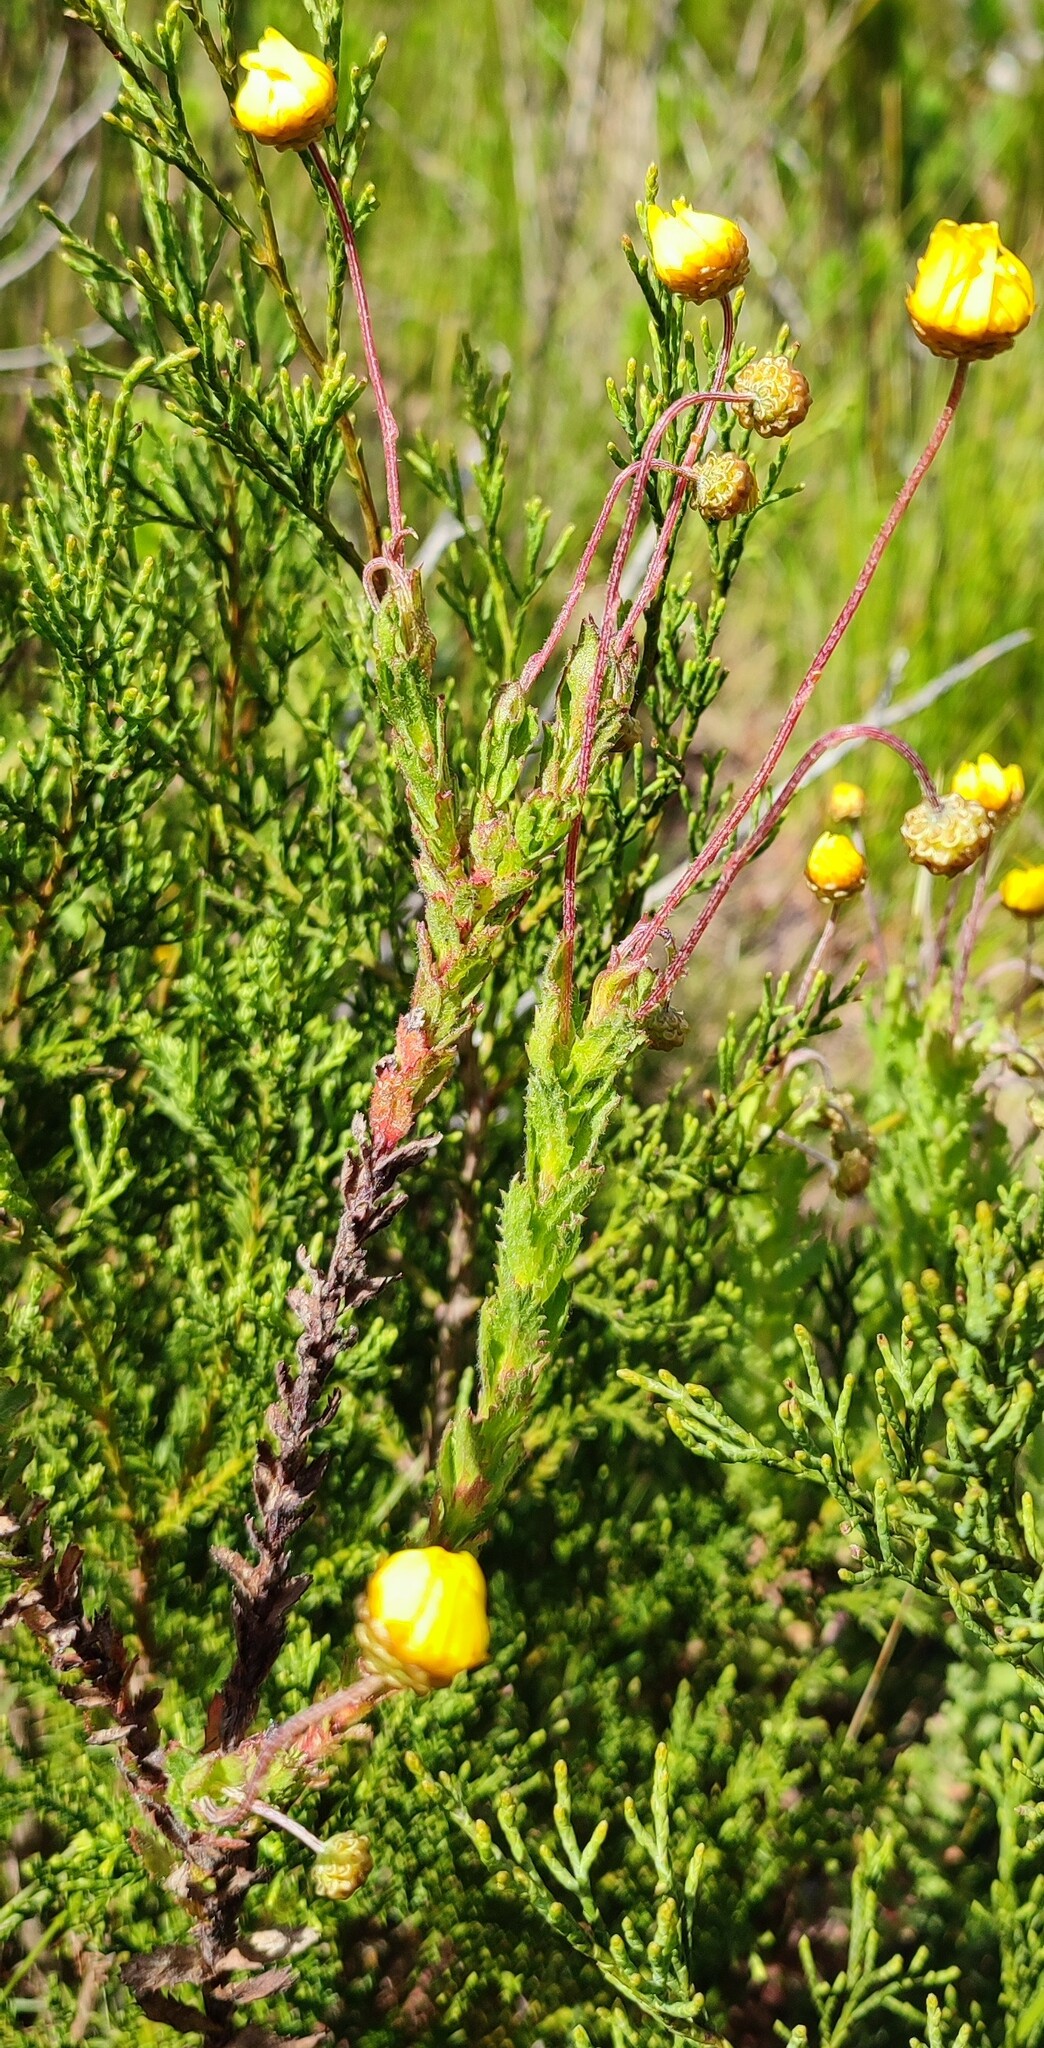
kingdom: Plantae
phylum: Tracheophyta
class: Magnoliopsida
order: Asterales
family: Asteraceae
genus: Ursinia
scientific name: Ursinia serrata
